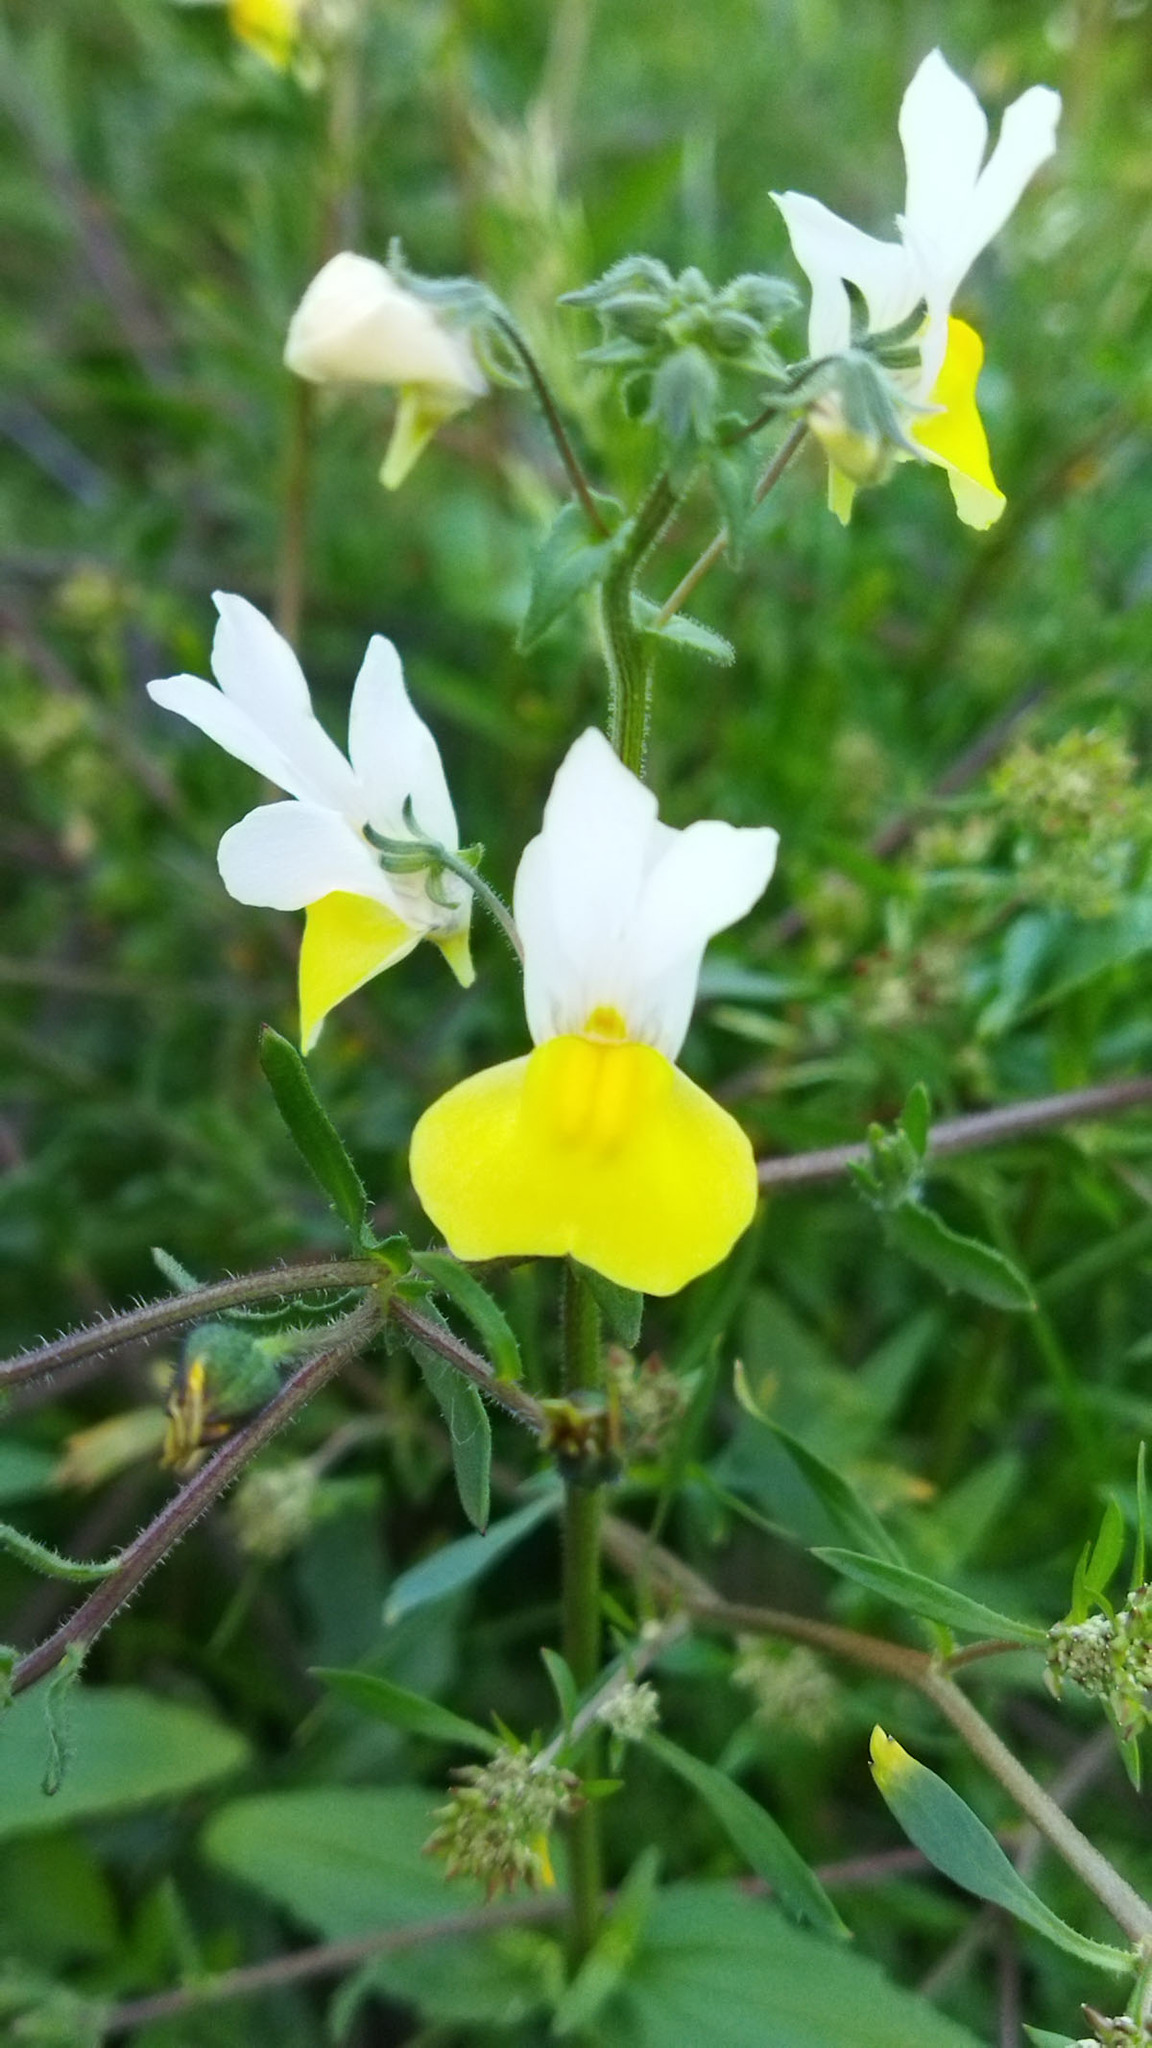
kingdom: Plantae
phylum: Tracheophyta
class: Magnoliopsida
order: Lamiales
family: Scrophulariaceae
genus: Nemesia
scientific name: Nemesia anisocarpa
